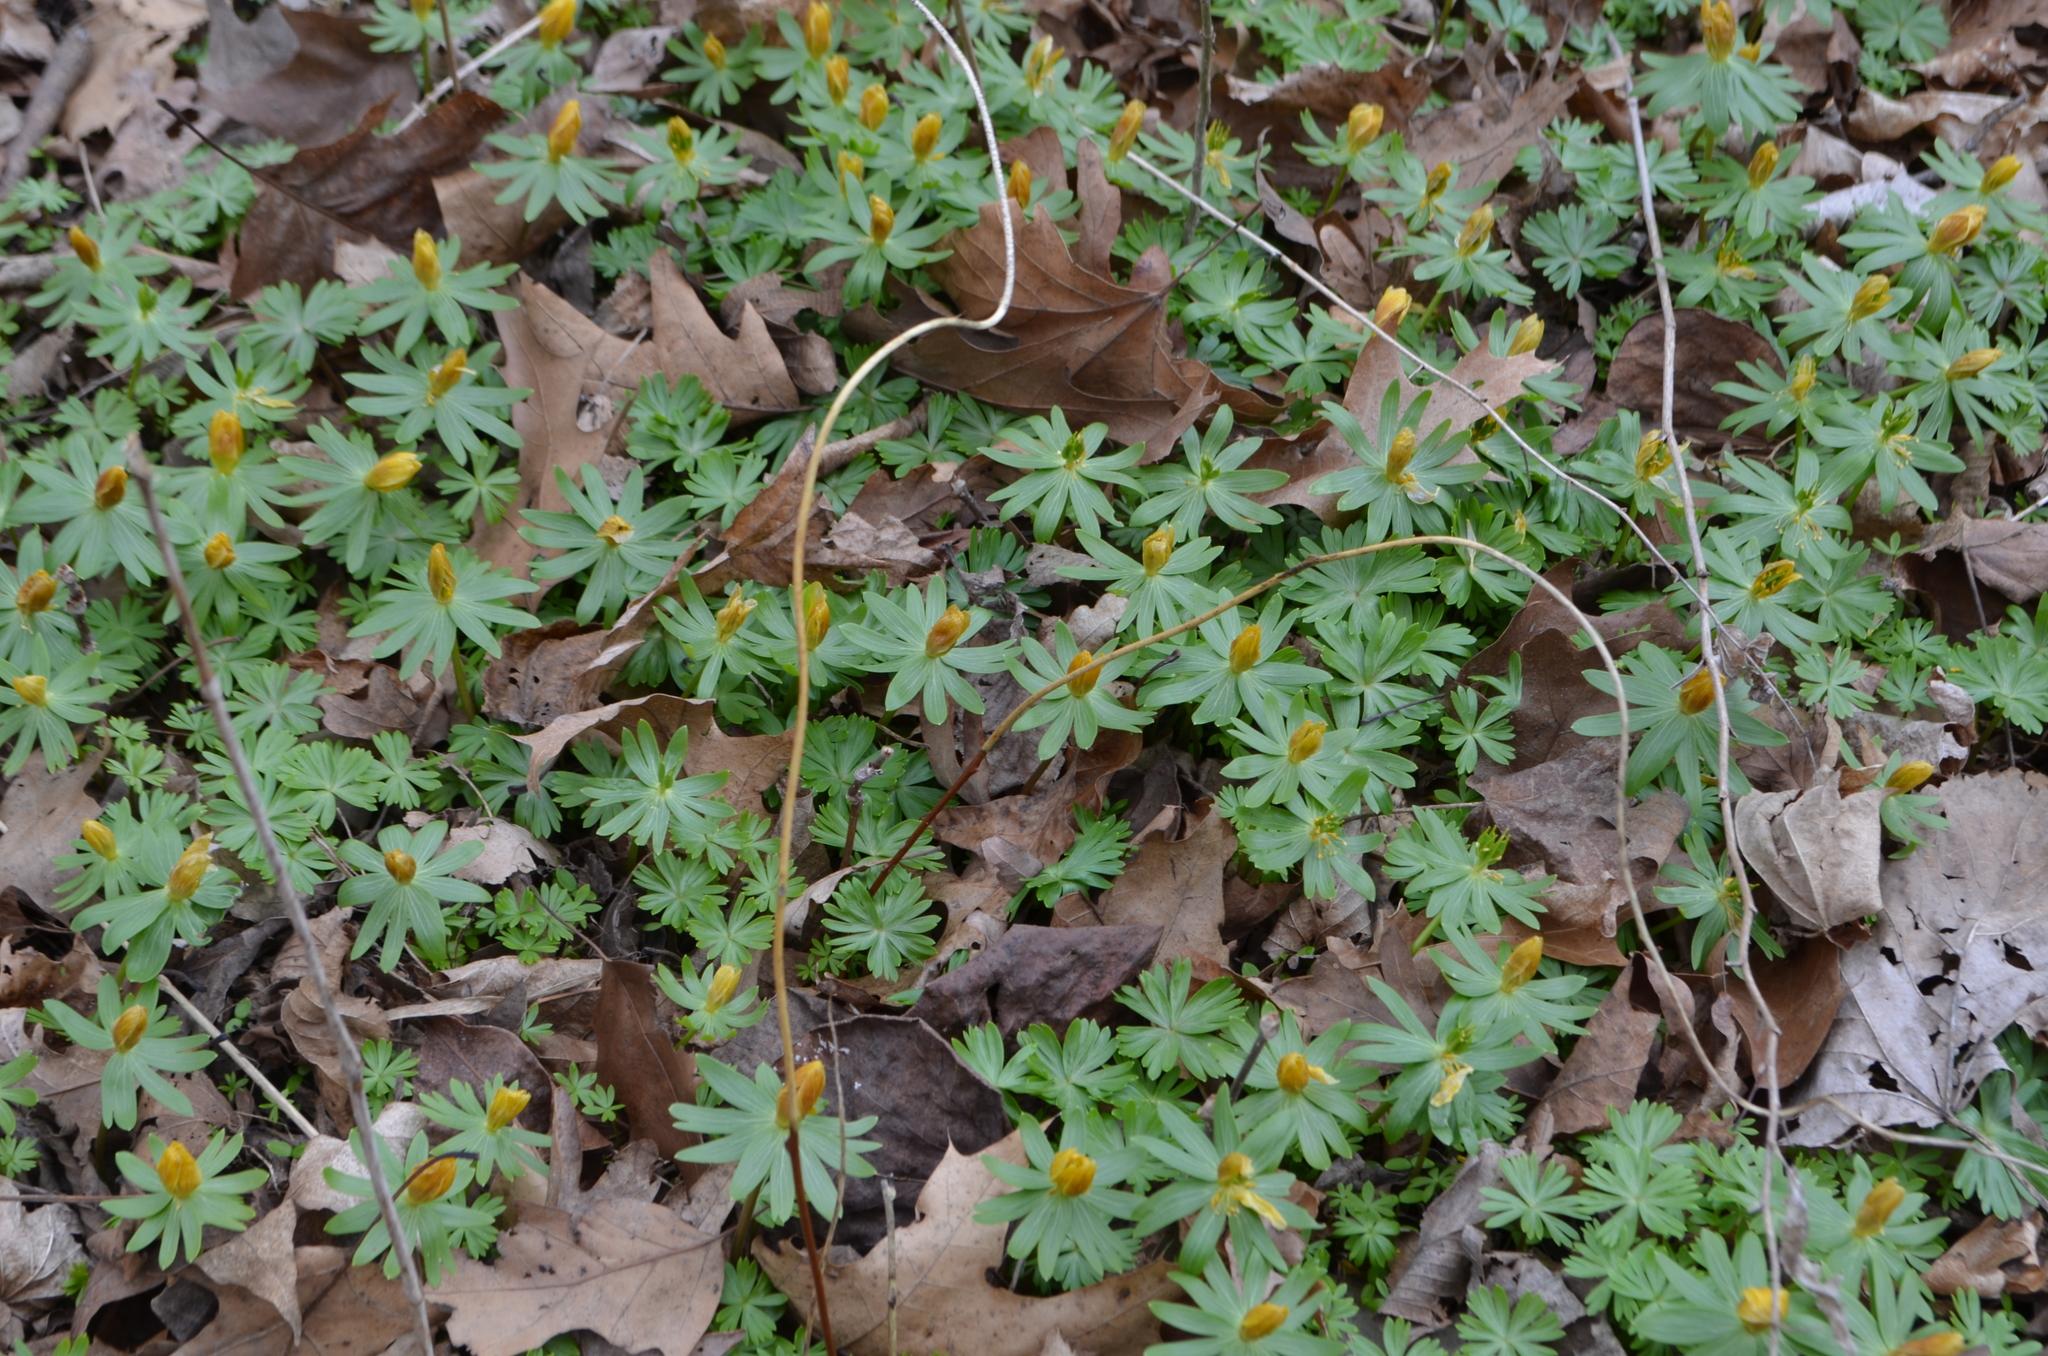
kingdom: Plantae
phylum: Tracheophyta
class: Magnoliopsida
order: Ranunculales
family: Ranunculaceae
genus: Eranthis
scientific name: Eranthis hyemalis
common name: Winter aconite
